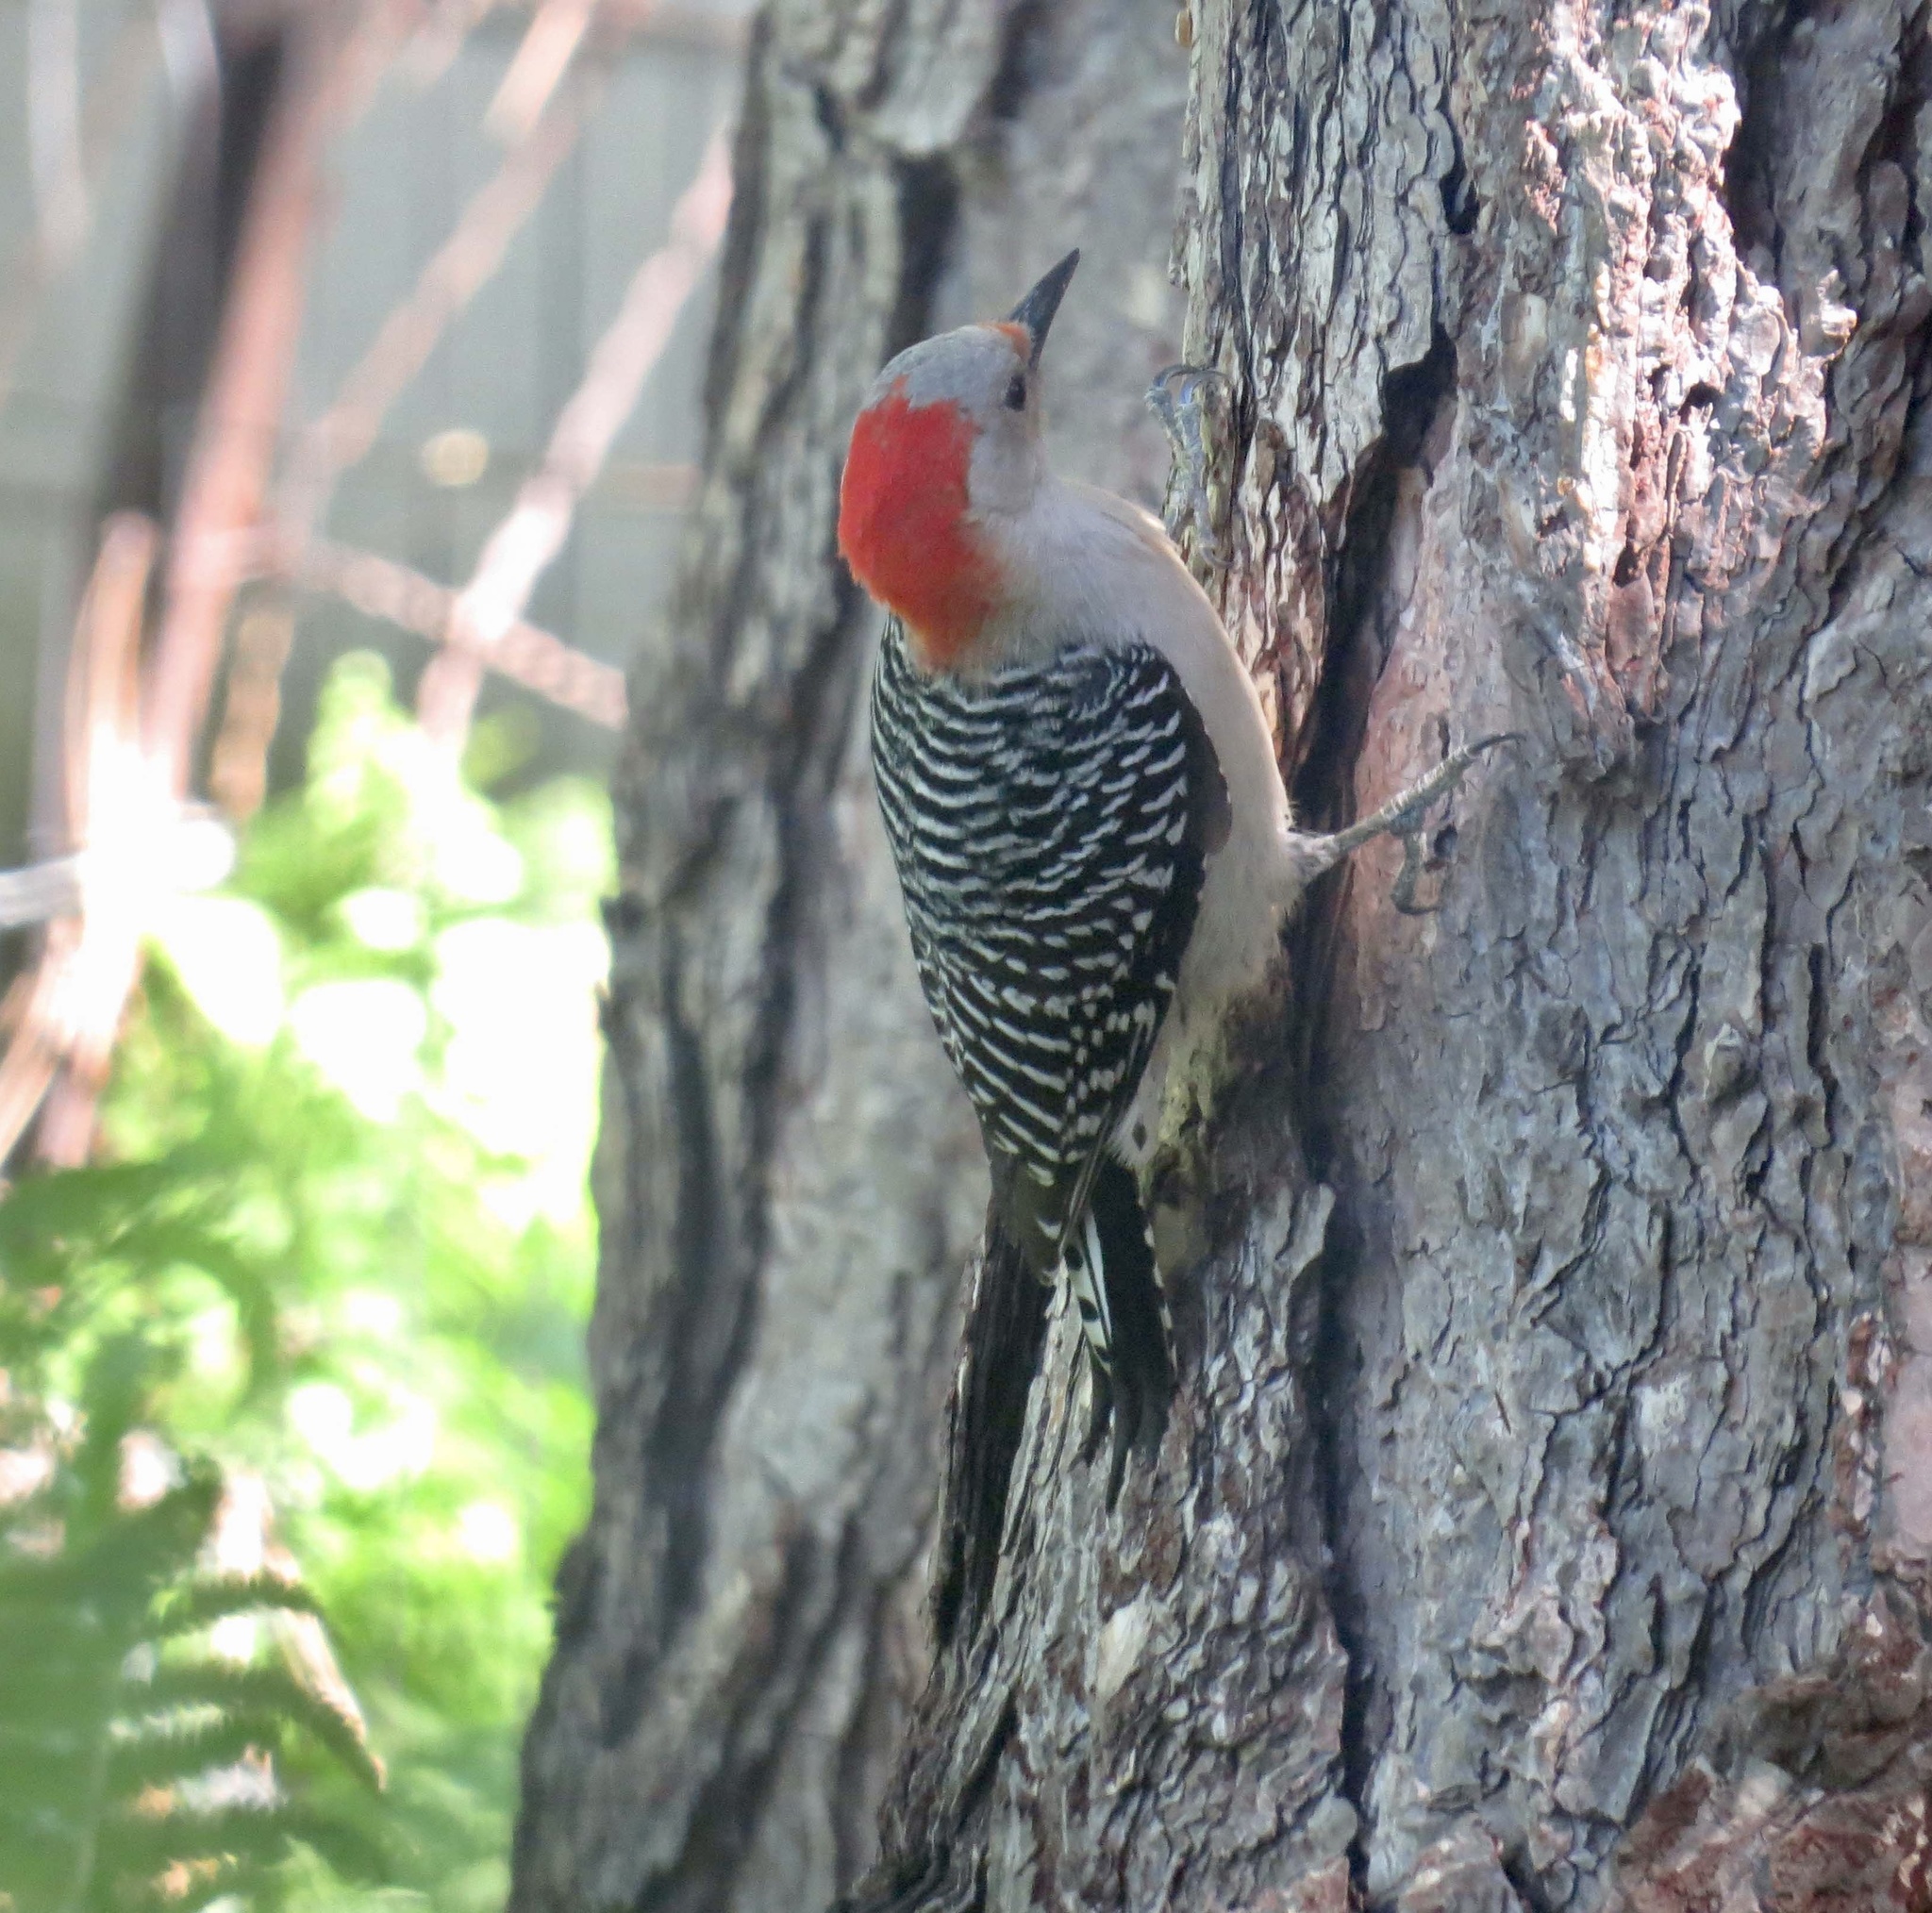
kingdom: Animalia
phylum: Chordata
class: Aves
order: Piciformes
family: Picidae
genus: Melanerpes
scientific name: Melanerpes carolinus
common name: Red-bellied woodpecker
